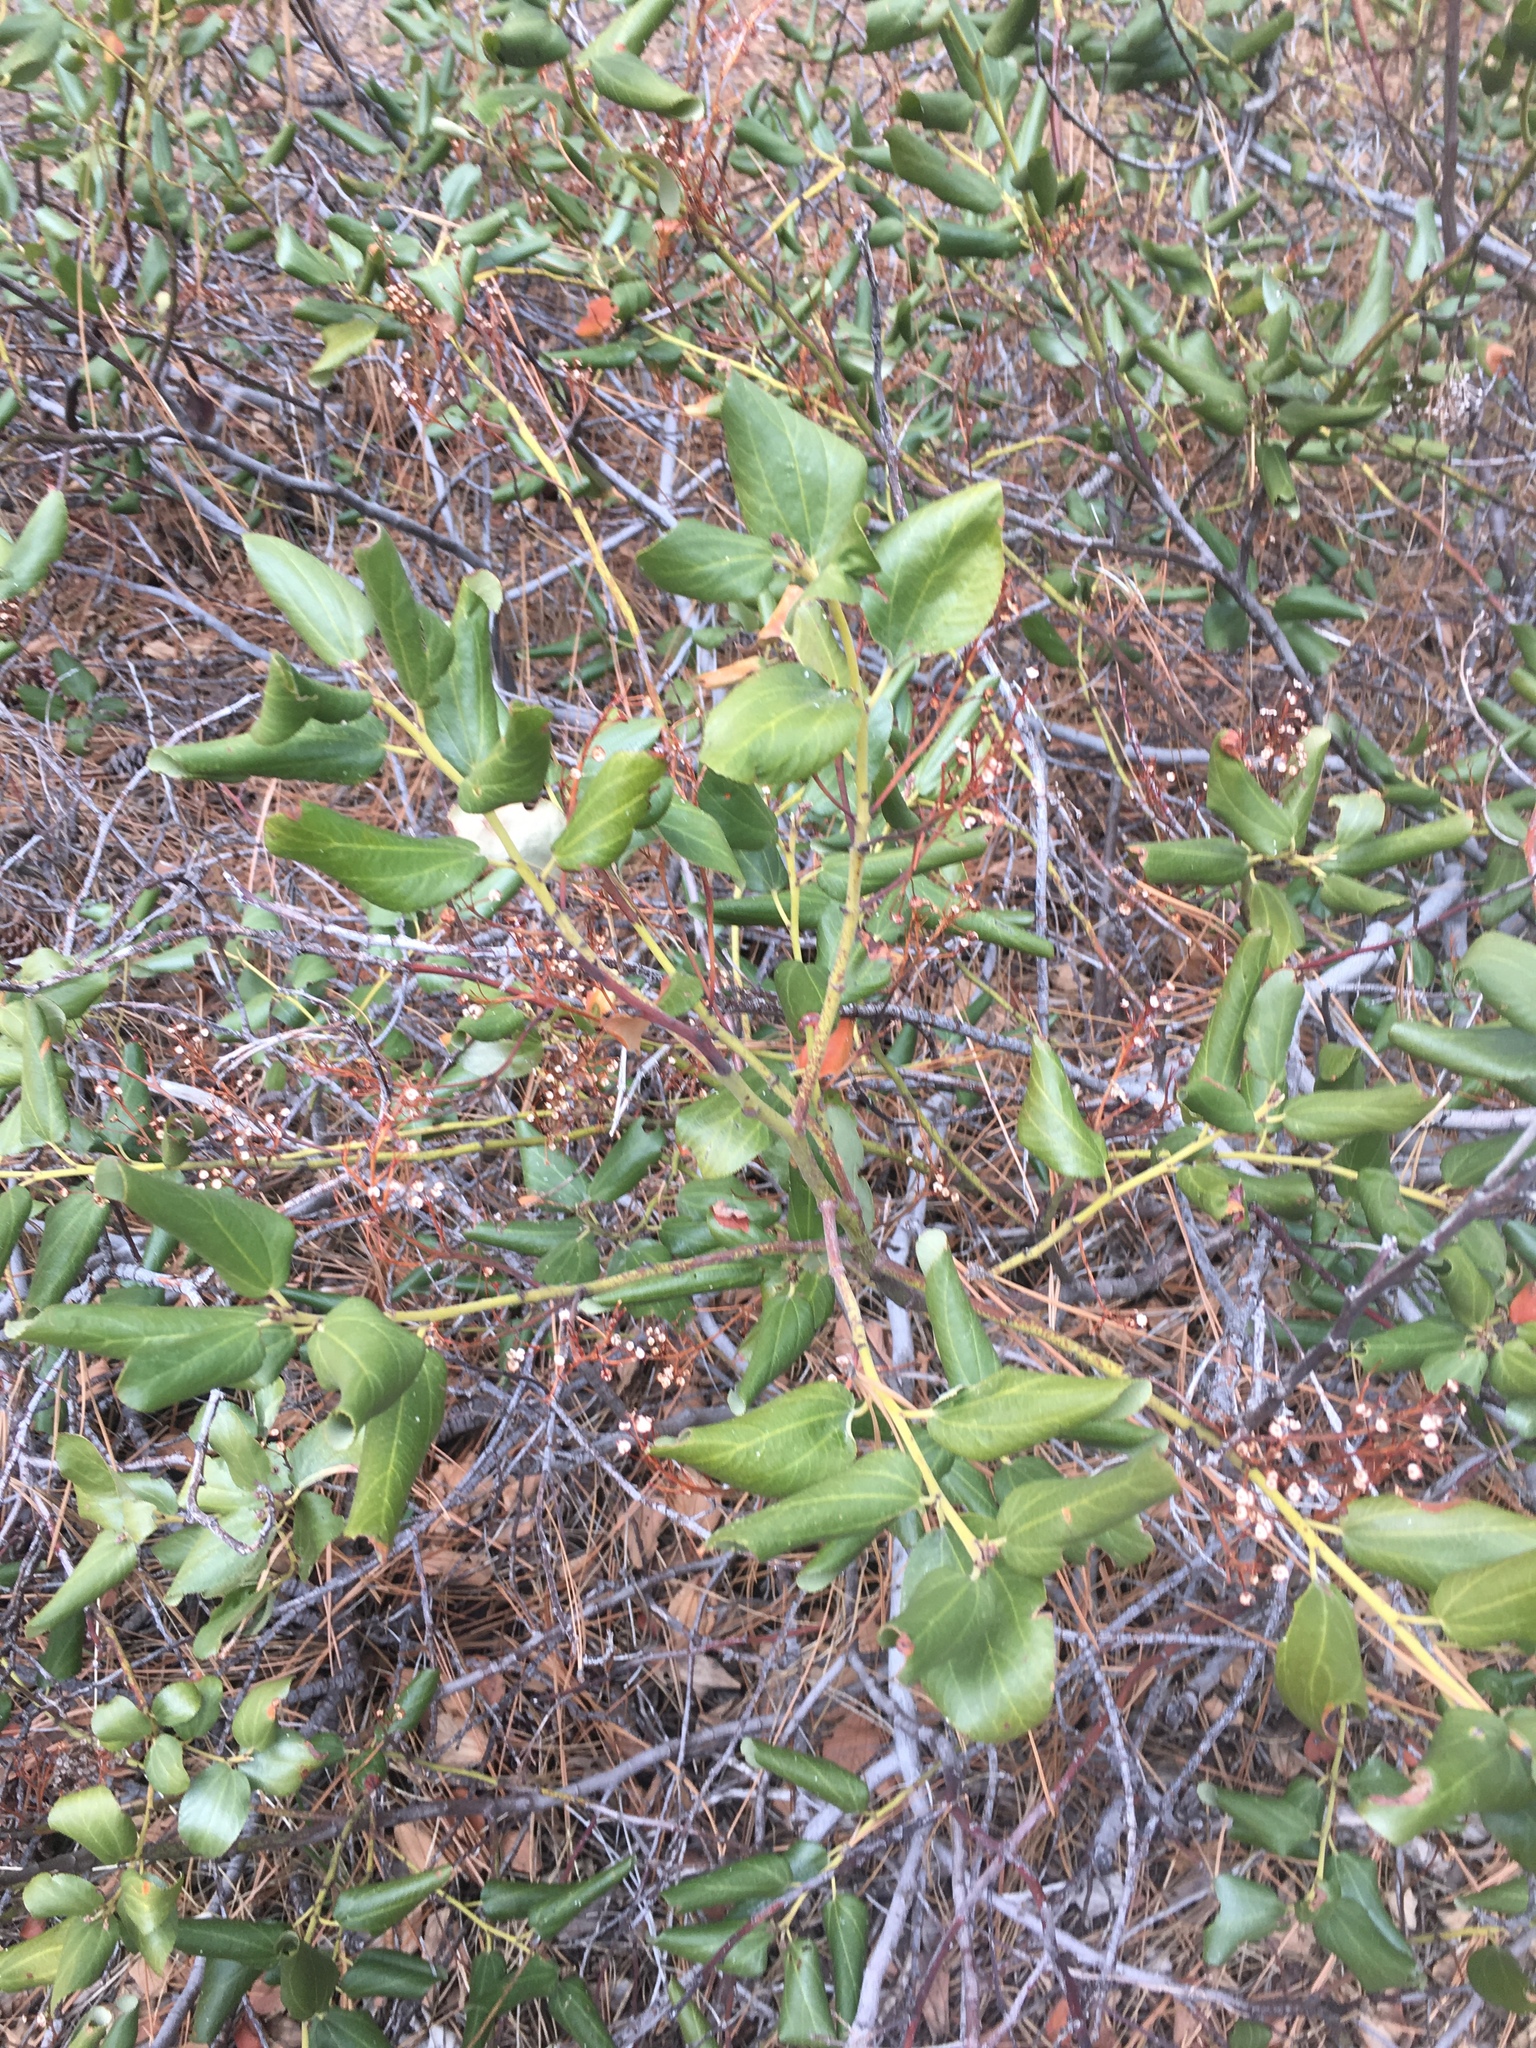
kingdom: Plantae
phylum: Tracheophyta
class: Magnoliopsida
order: Rosales
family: Rhamnaceae
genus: Ceanothus
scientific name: Ceanothus velutinus
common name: Snowbrush
